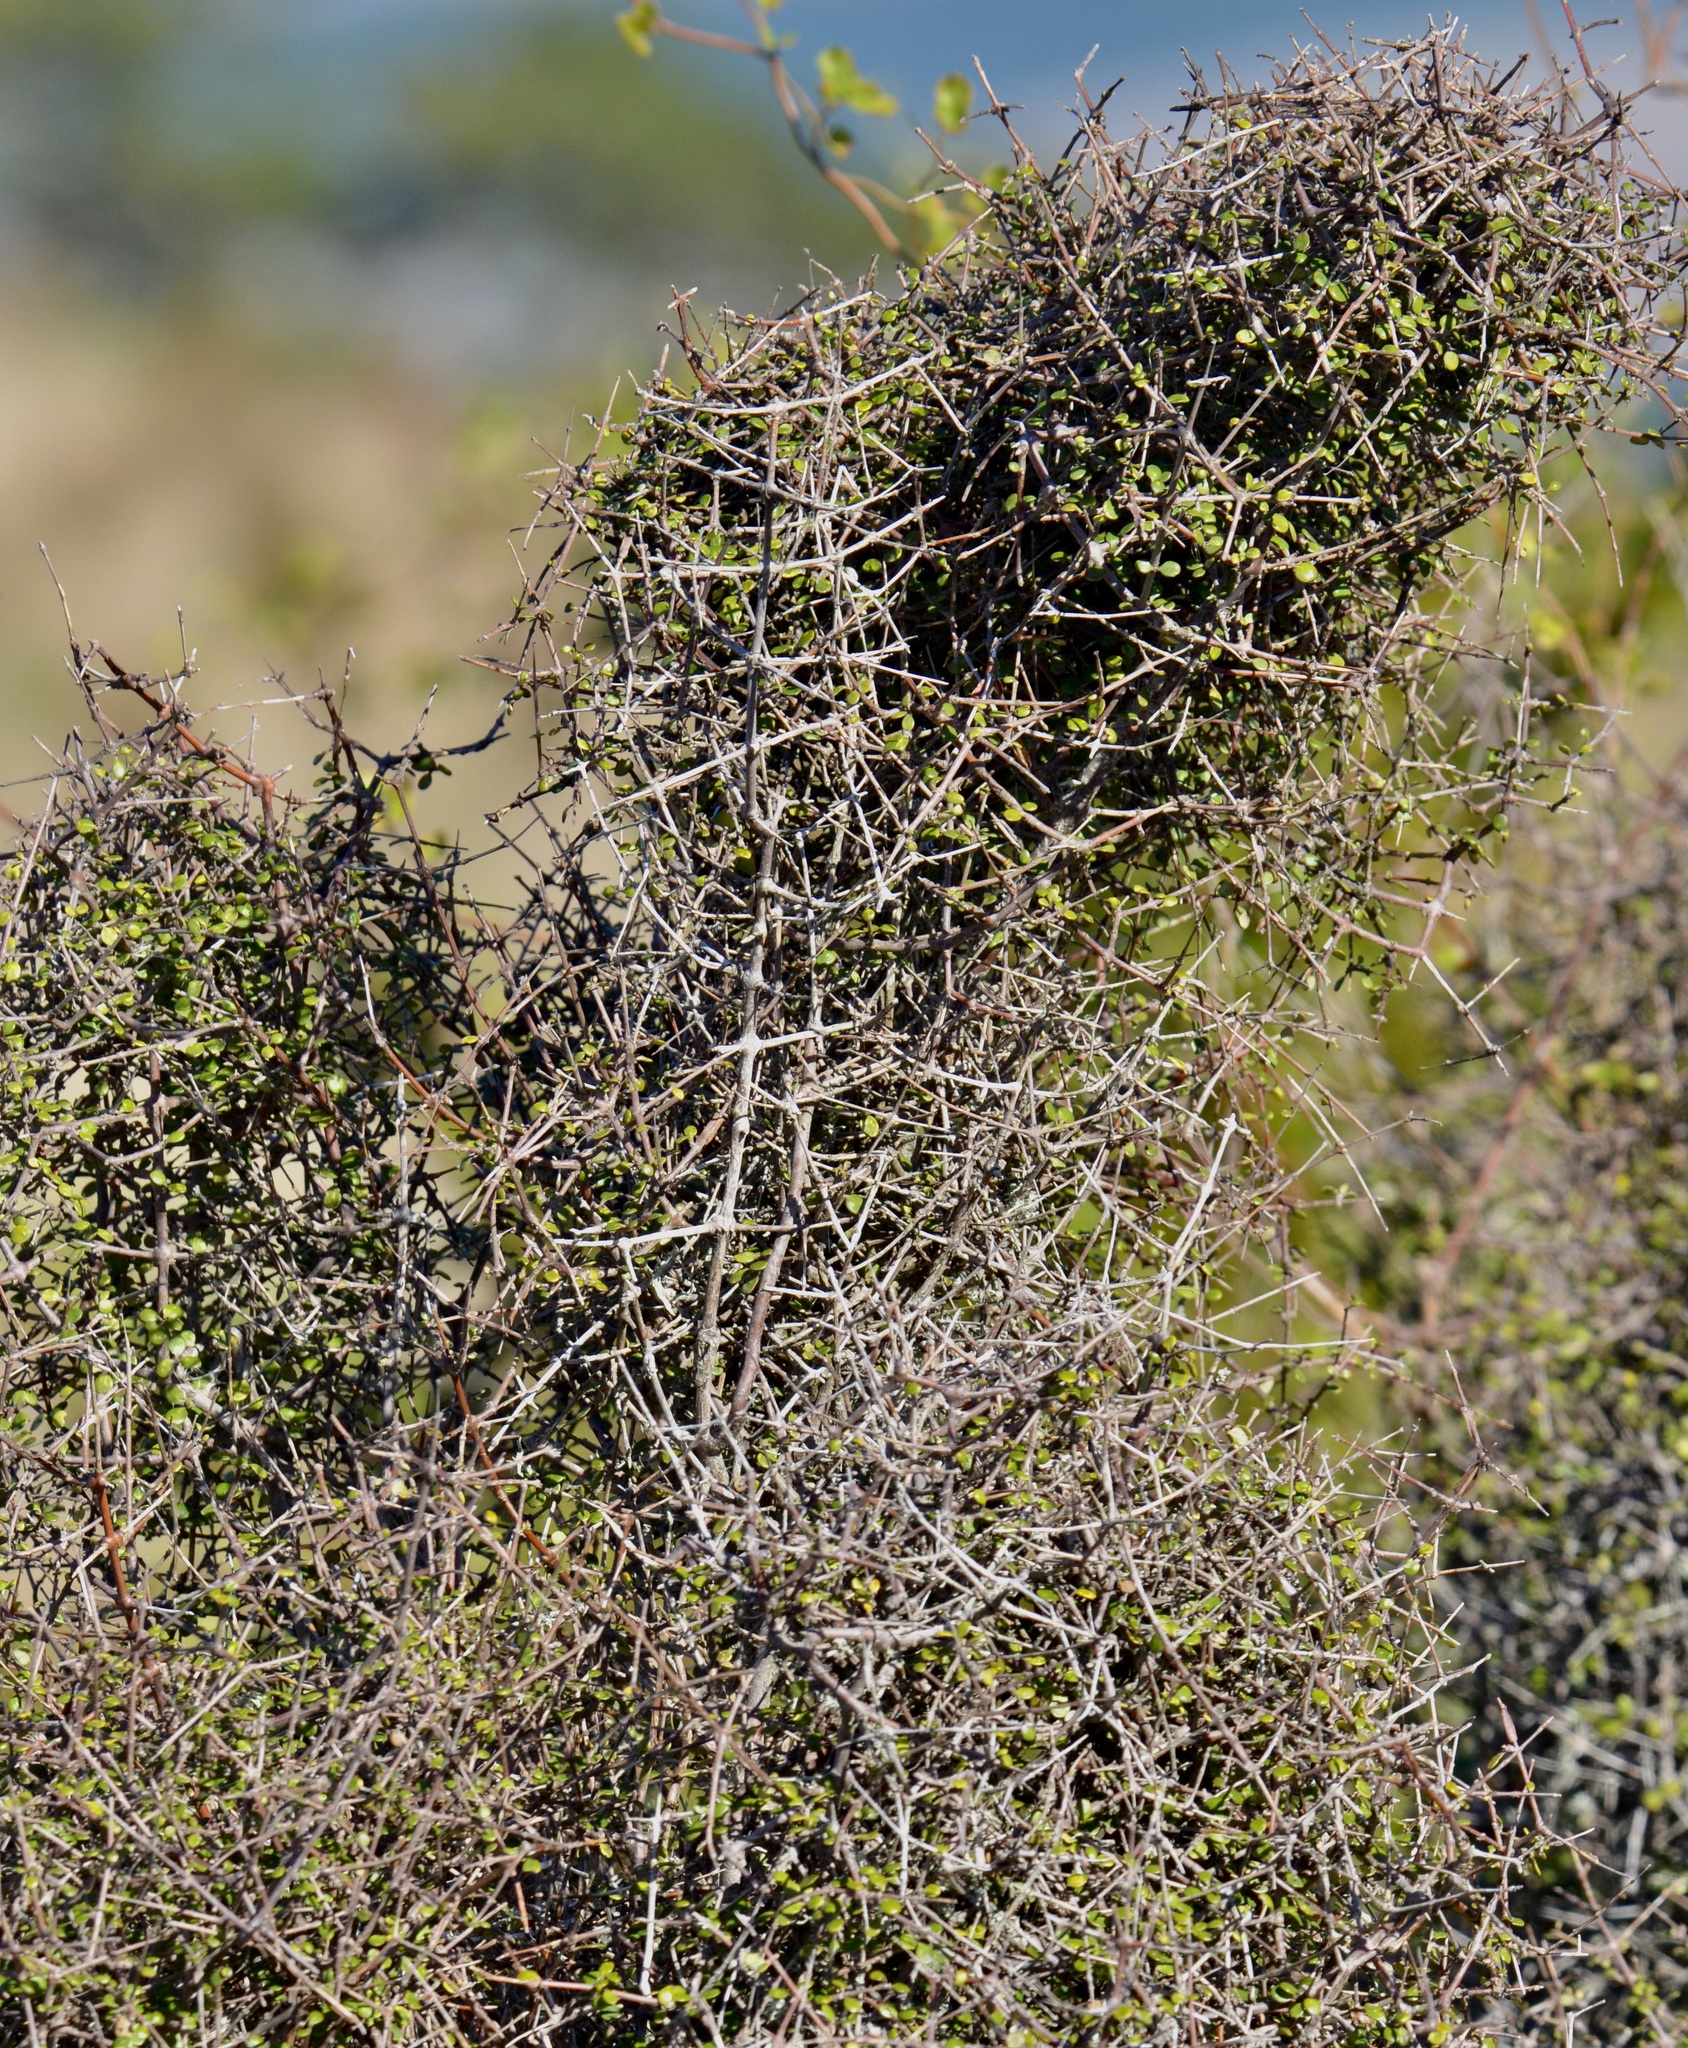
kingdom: Plantae
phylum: Tracheophyta
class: Magnoliopsida
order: Gentianales
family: Rubiaceae
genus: Coprosma
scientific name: Coprosma crassifolia
